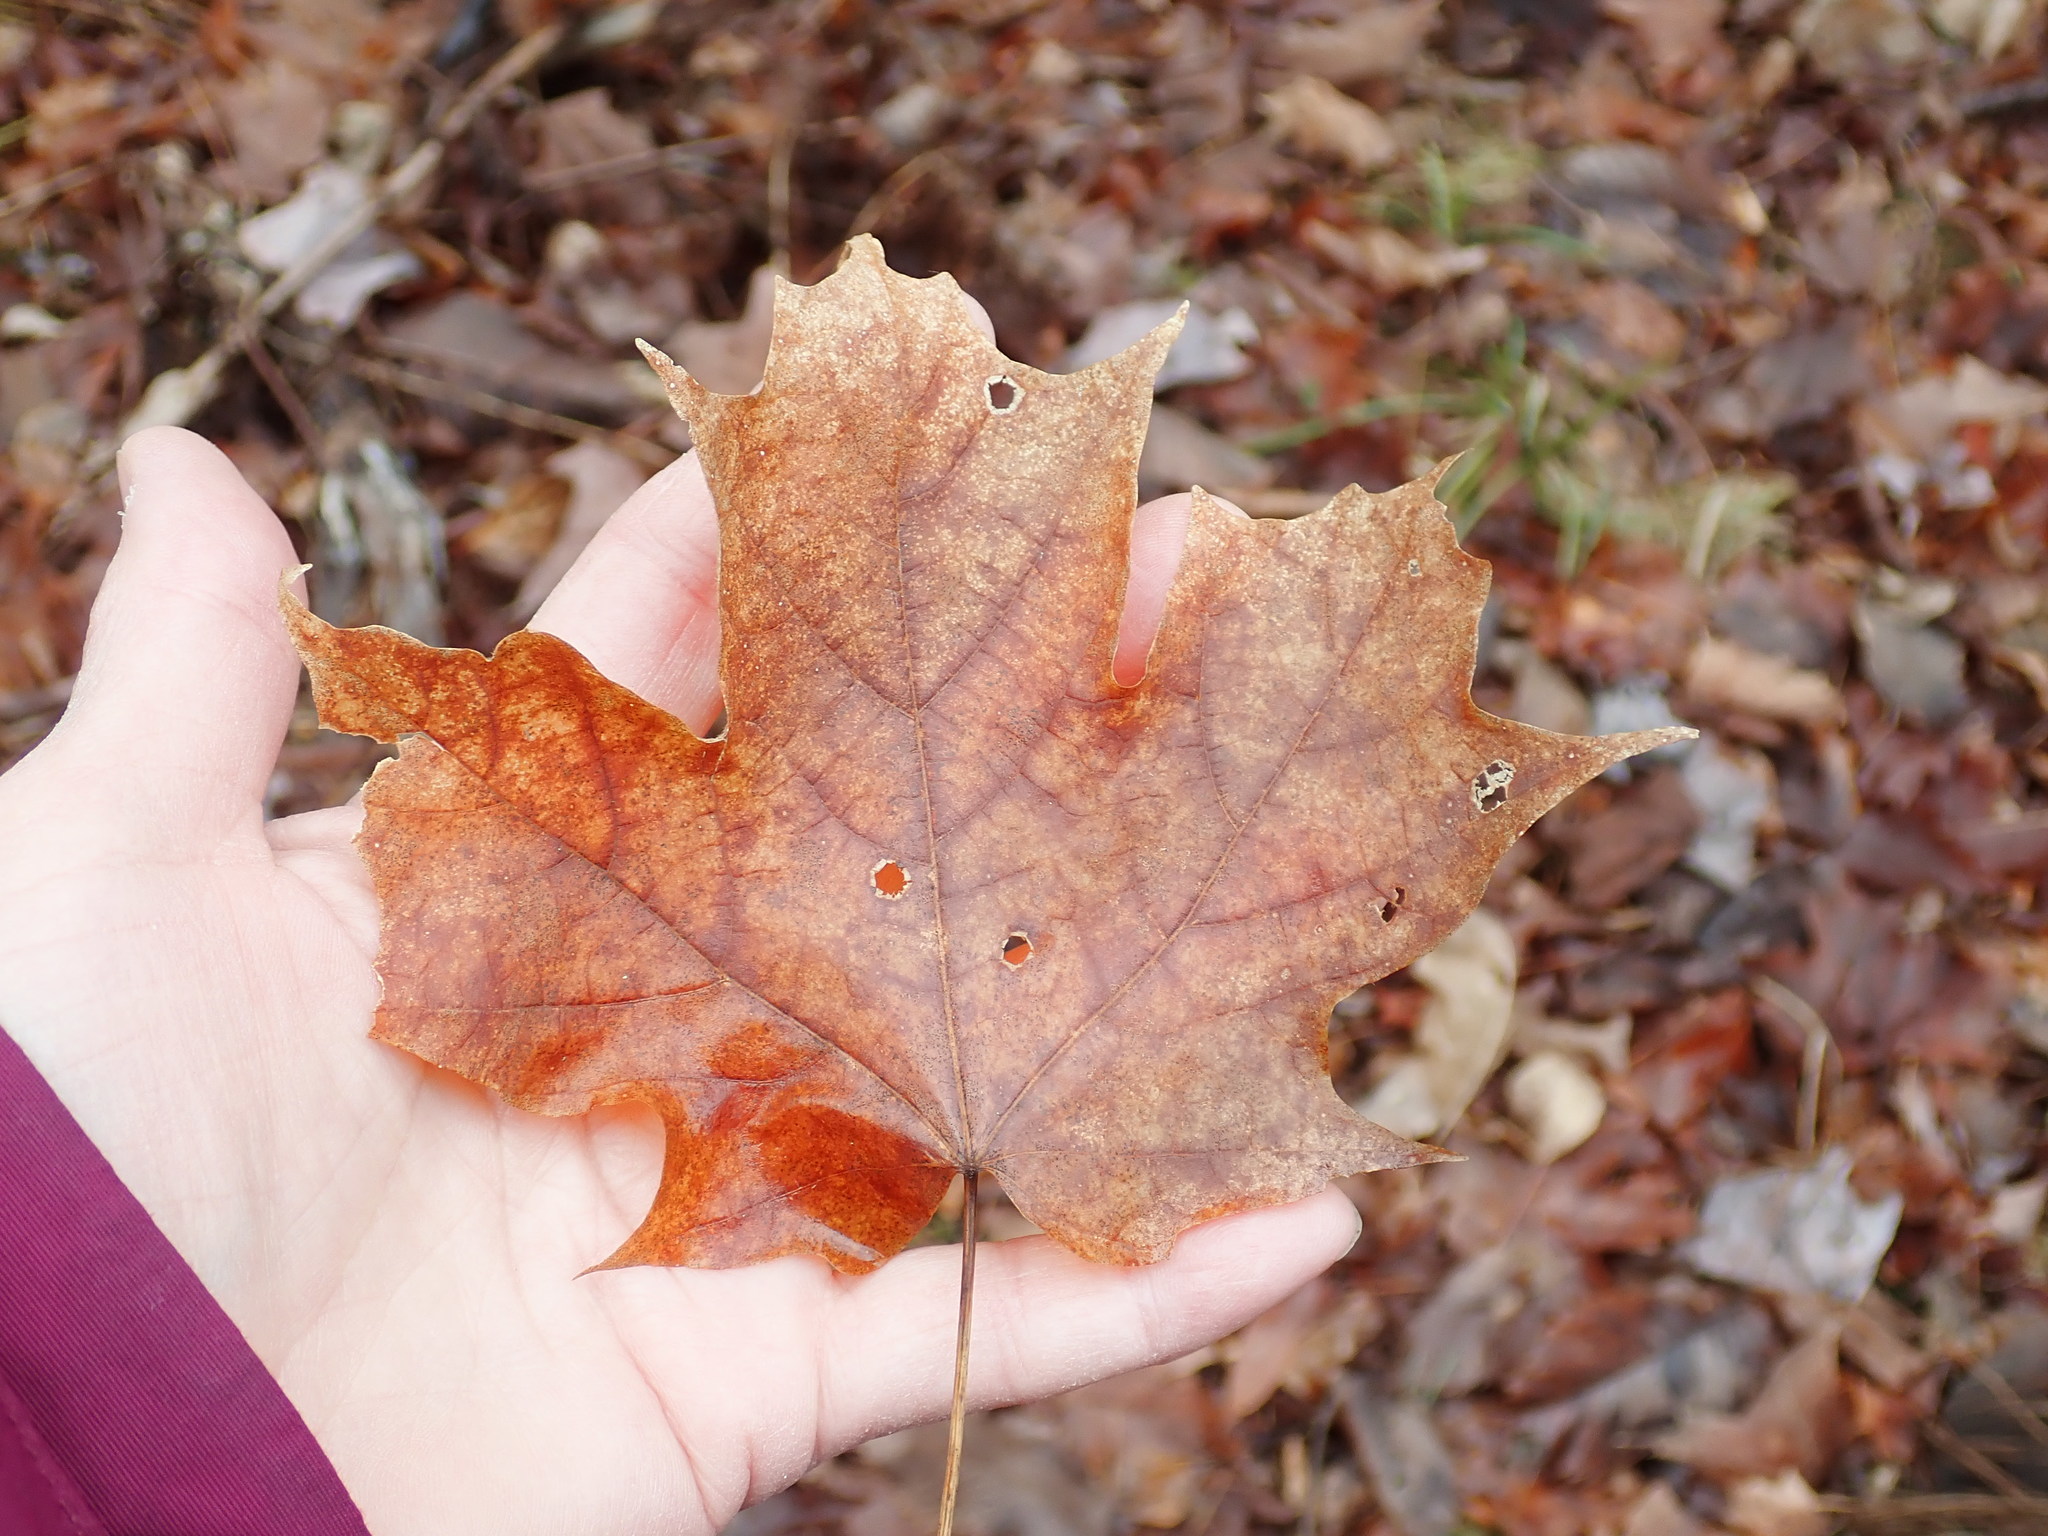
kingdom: Plantae
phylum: Tracheophyta
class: Magnoliopsida
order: Sapindales
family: Sapindaceae
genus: Acer
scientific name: Acer saccharum
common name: Sugar maple
